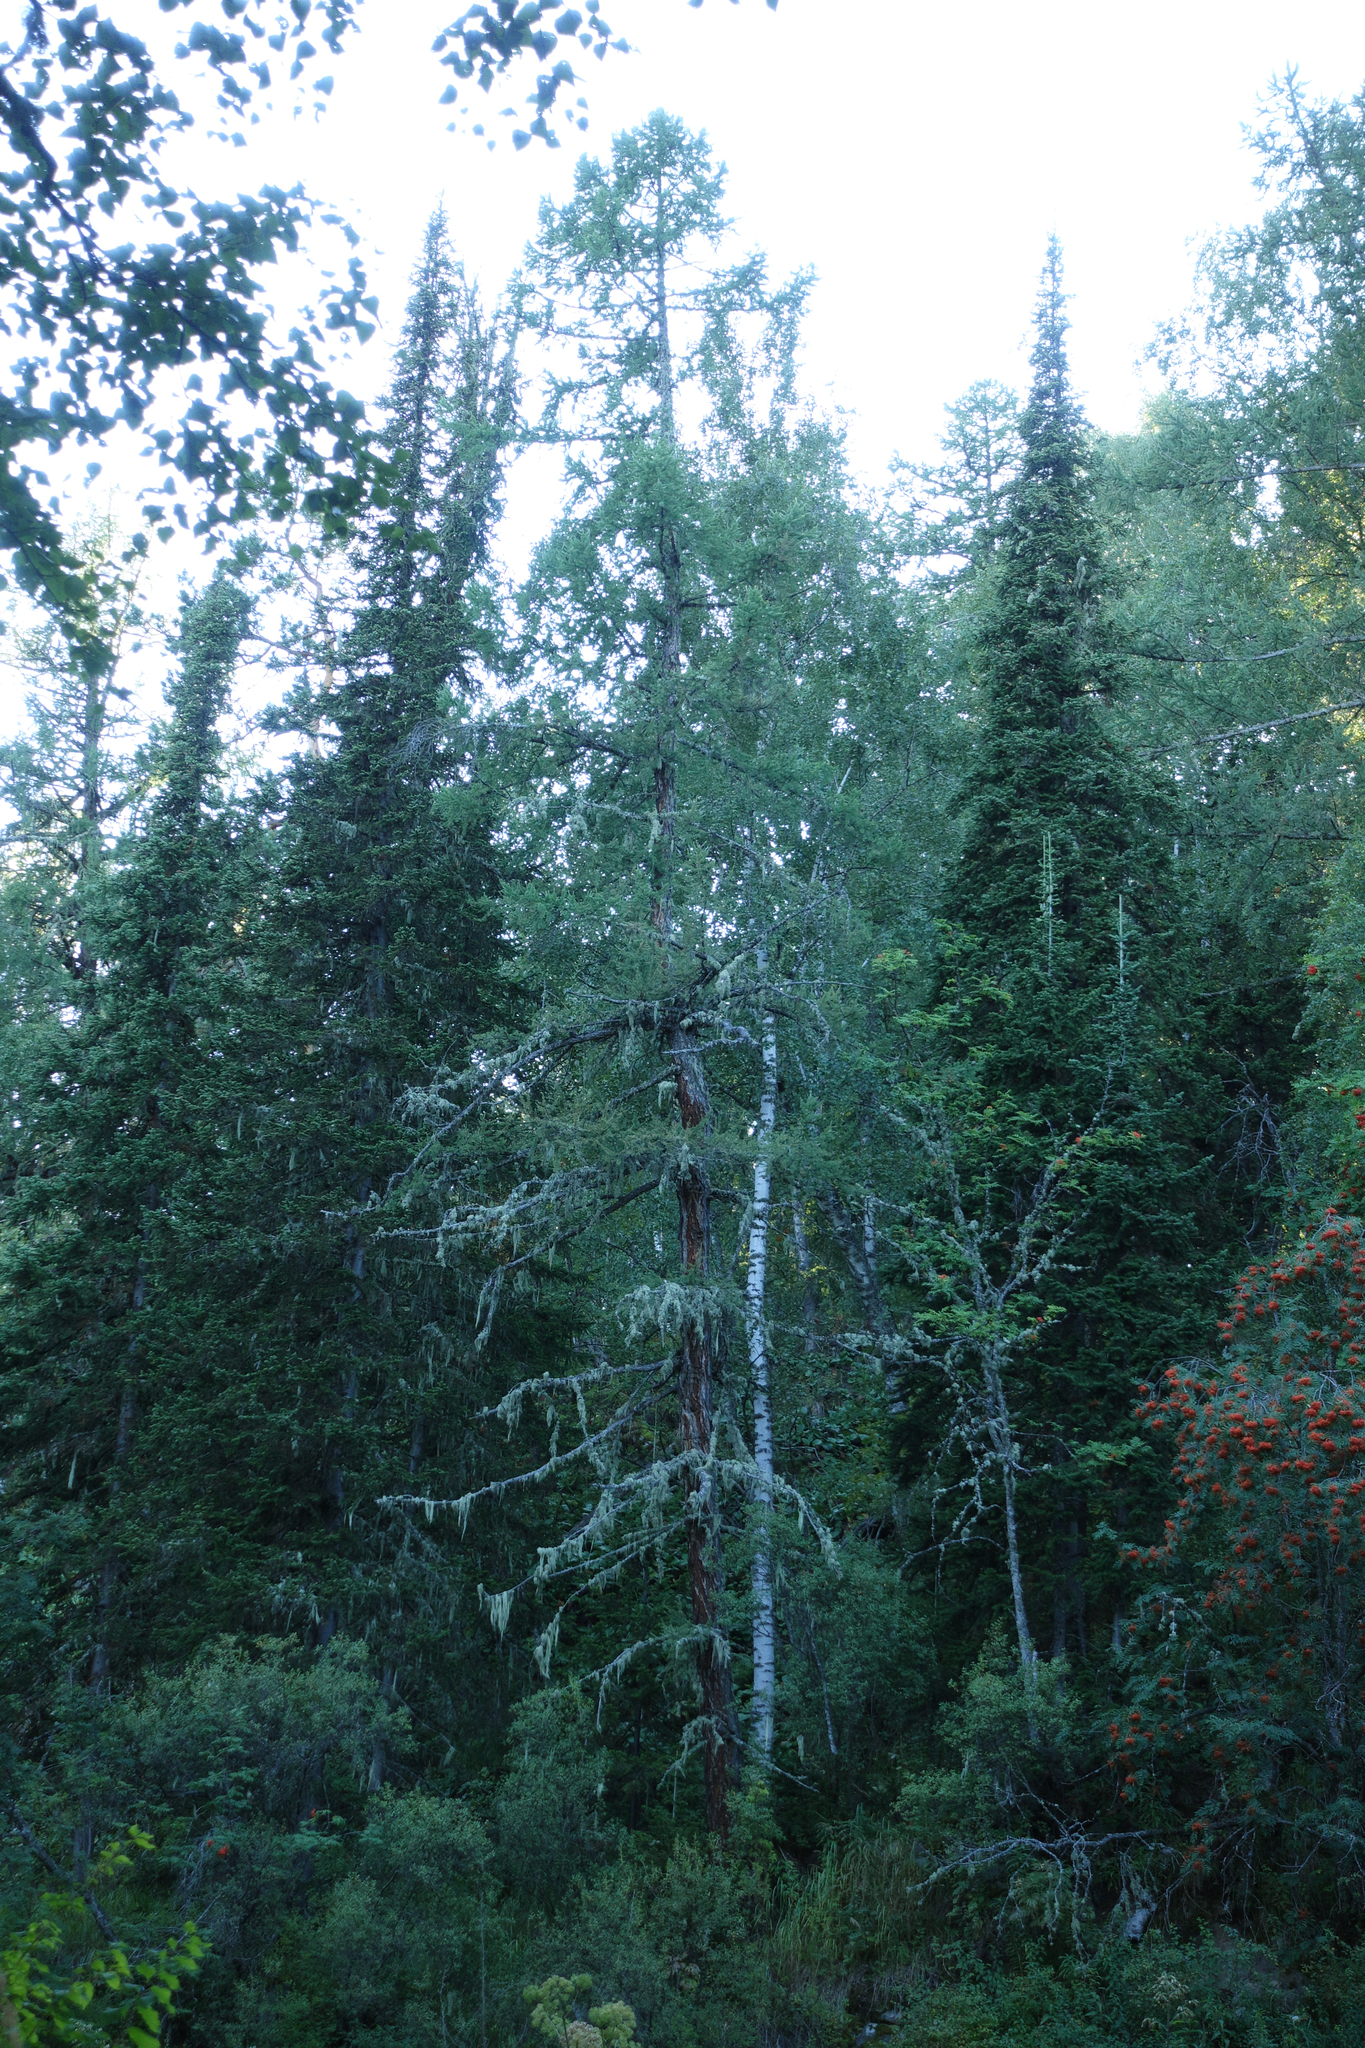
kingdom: Plantae
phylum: Tracheophyta
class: Pinopsida
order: Pinales
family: Pinaceae
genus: Larix
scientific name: Larix sibirica
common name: Siberian larch
